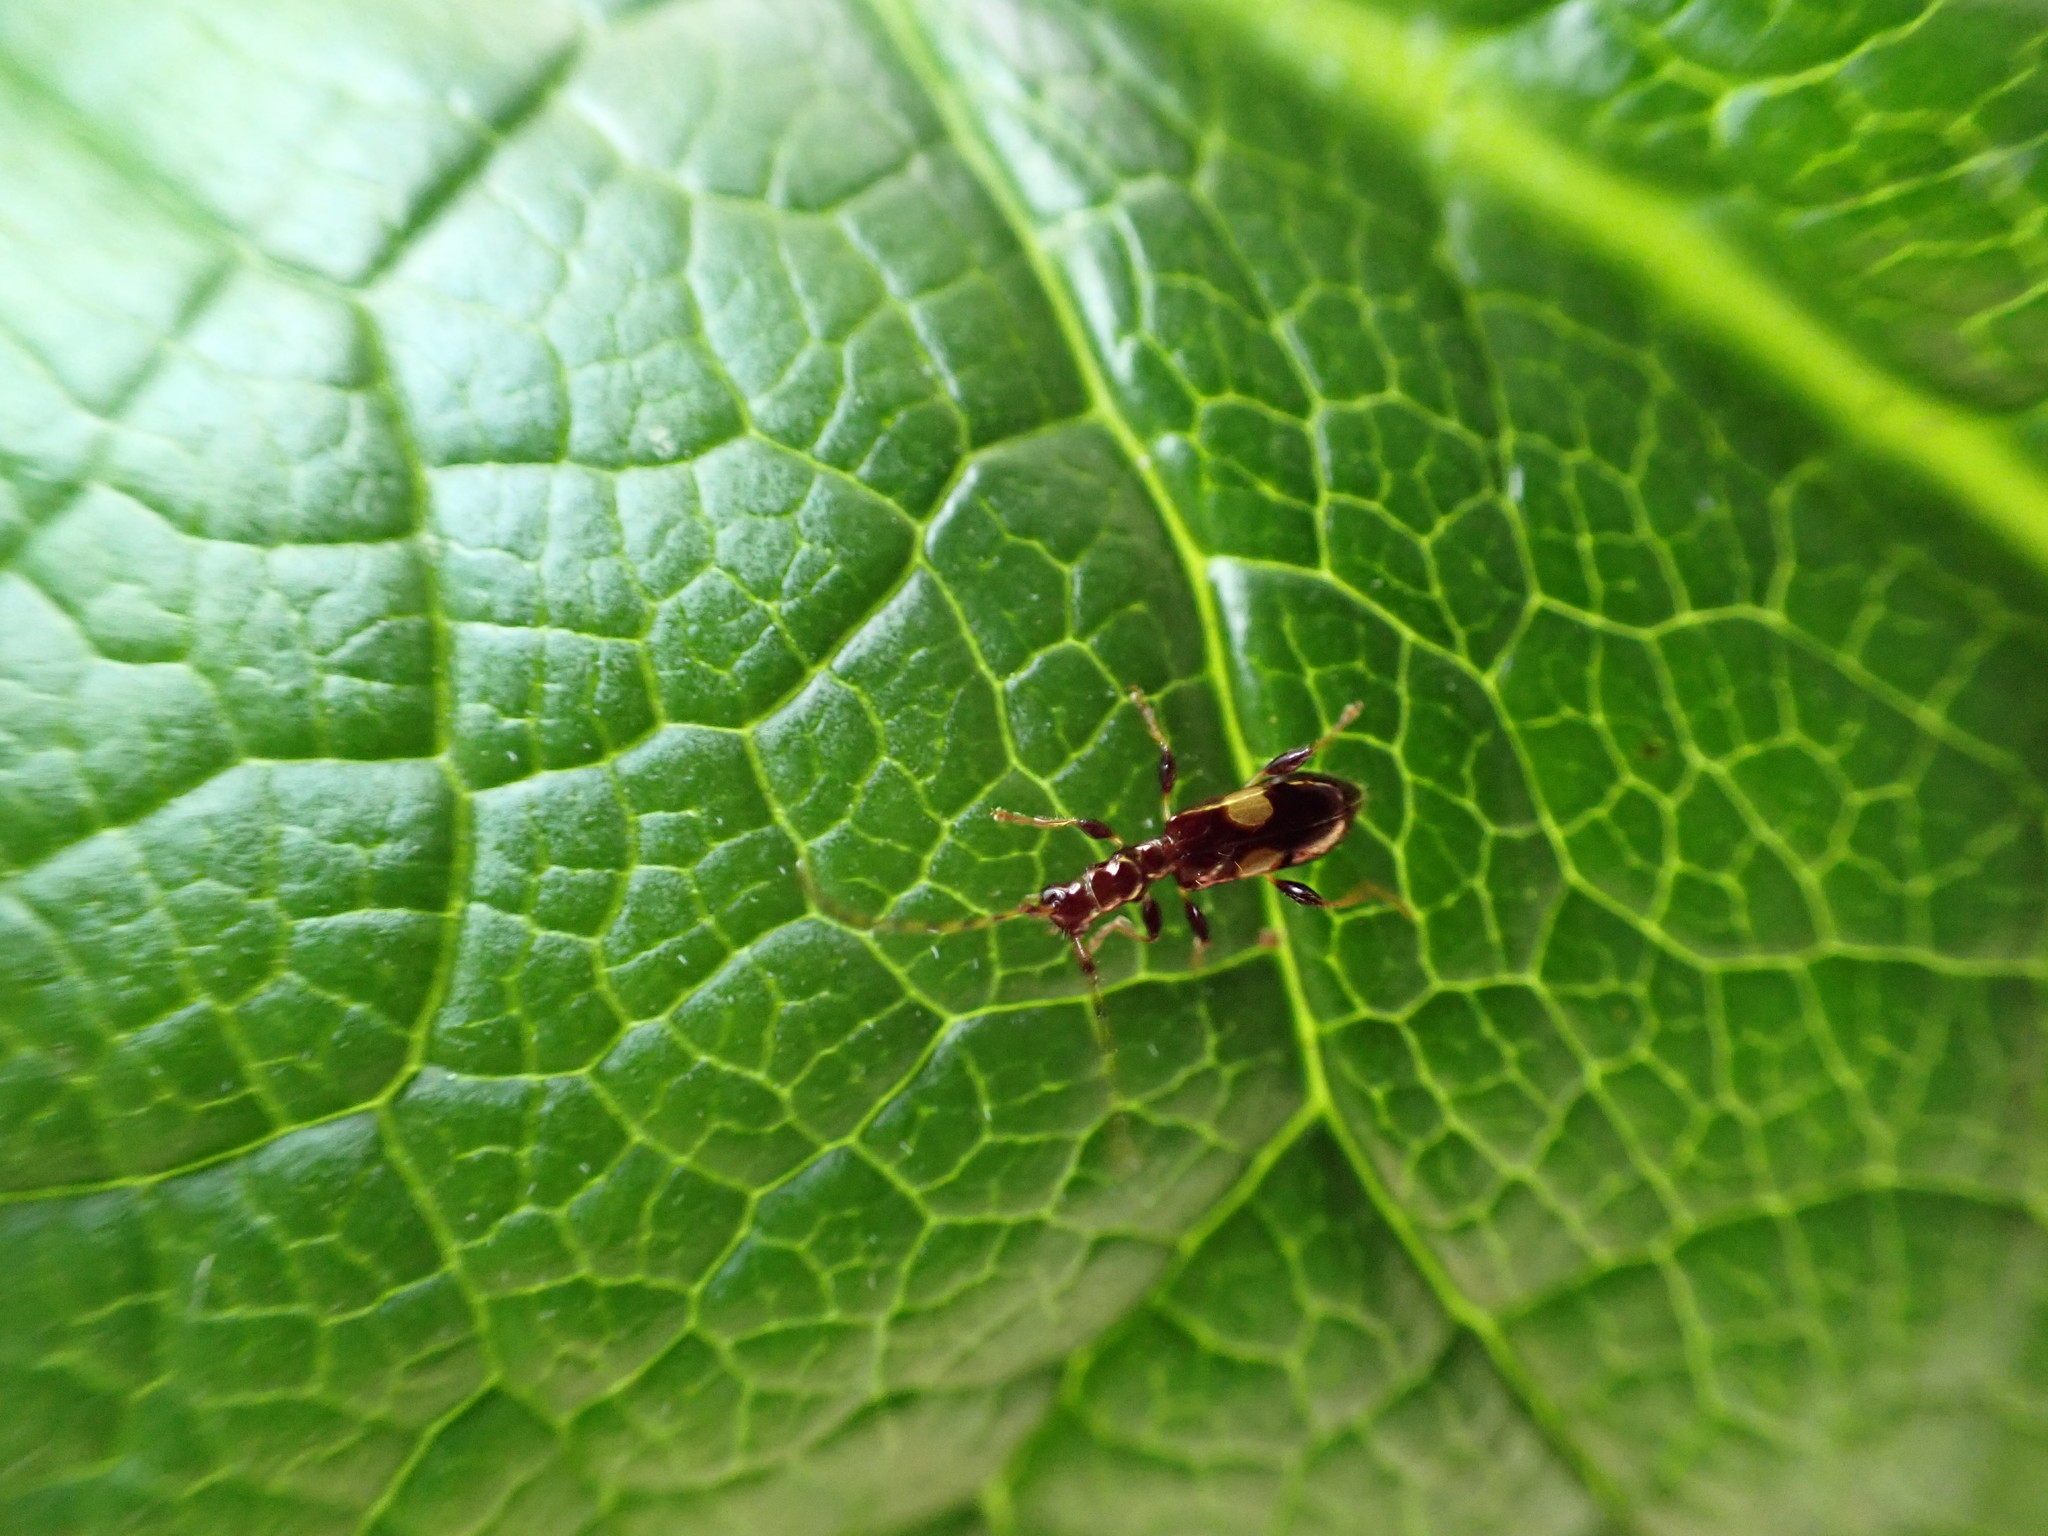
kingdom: Animalia
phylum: Arthropoda
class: Insecta
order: Coleoptera
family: Cerambycidae
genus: Zorion
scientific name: Zorion guttigerum
